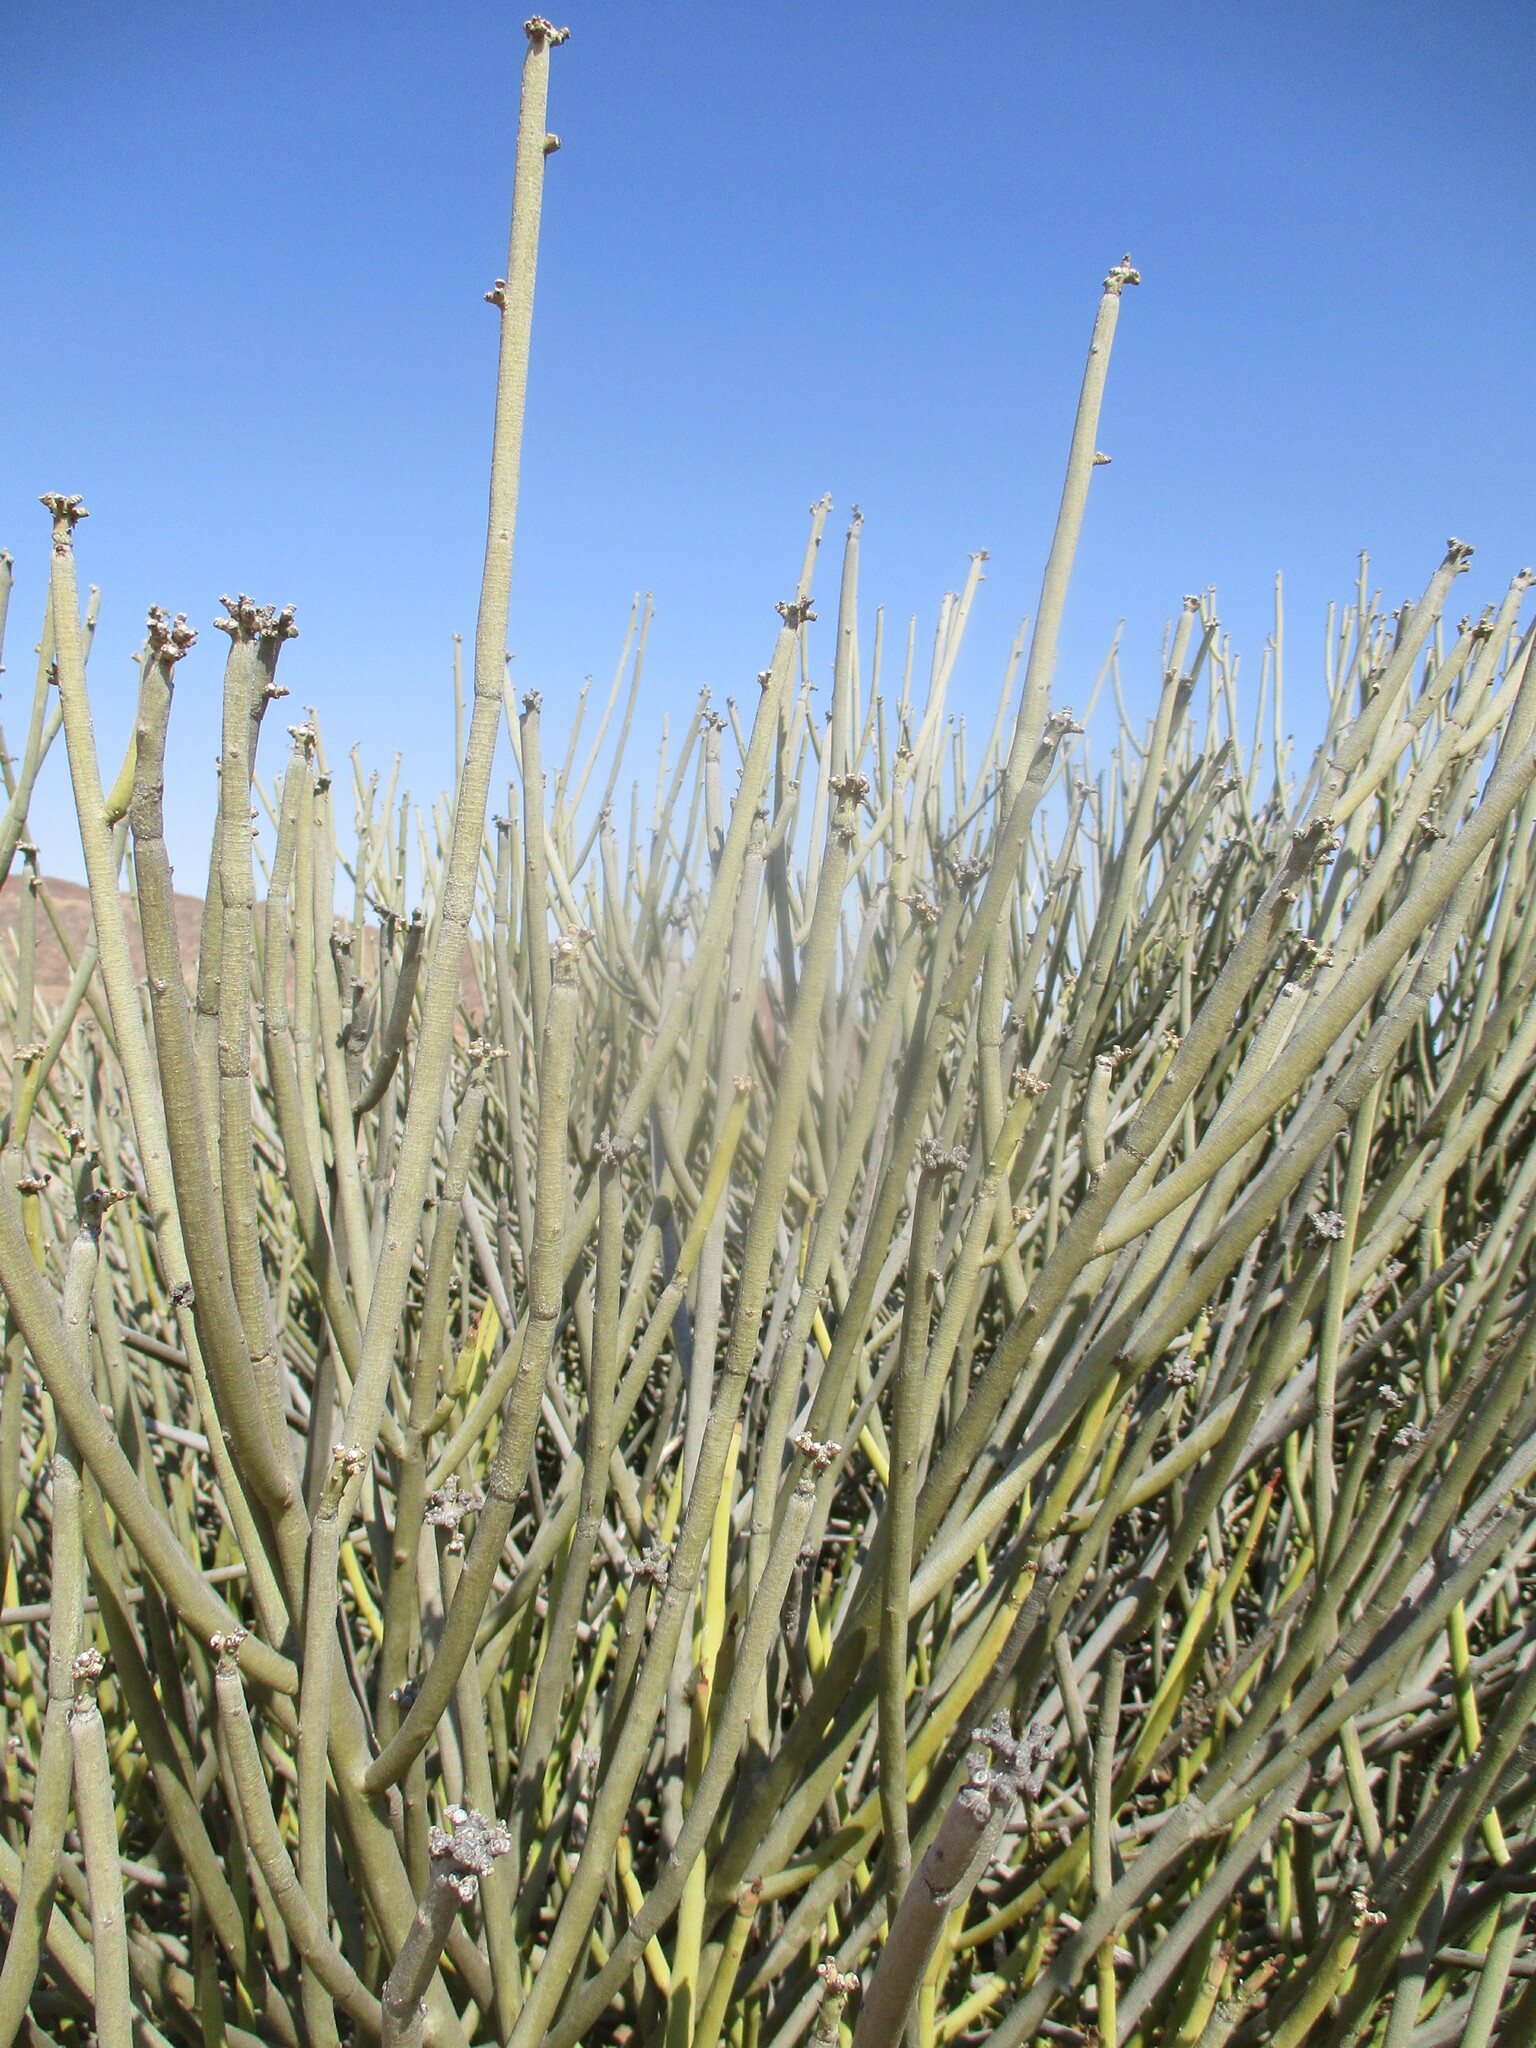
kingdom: Plantae
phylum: Tracheophyta
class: Magnoliopsida
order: Malpighiales
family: Euphorbiaceae
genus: Euphorbia
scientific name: Euphorbia damarana
